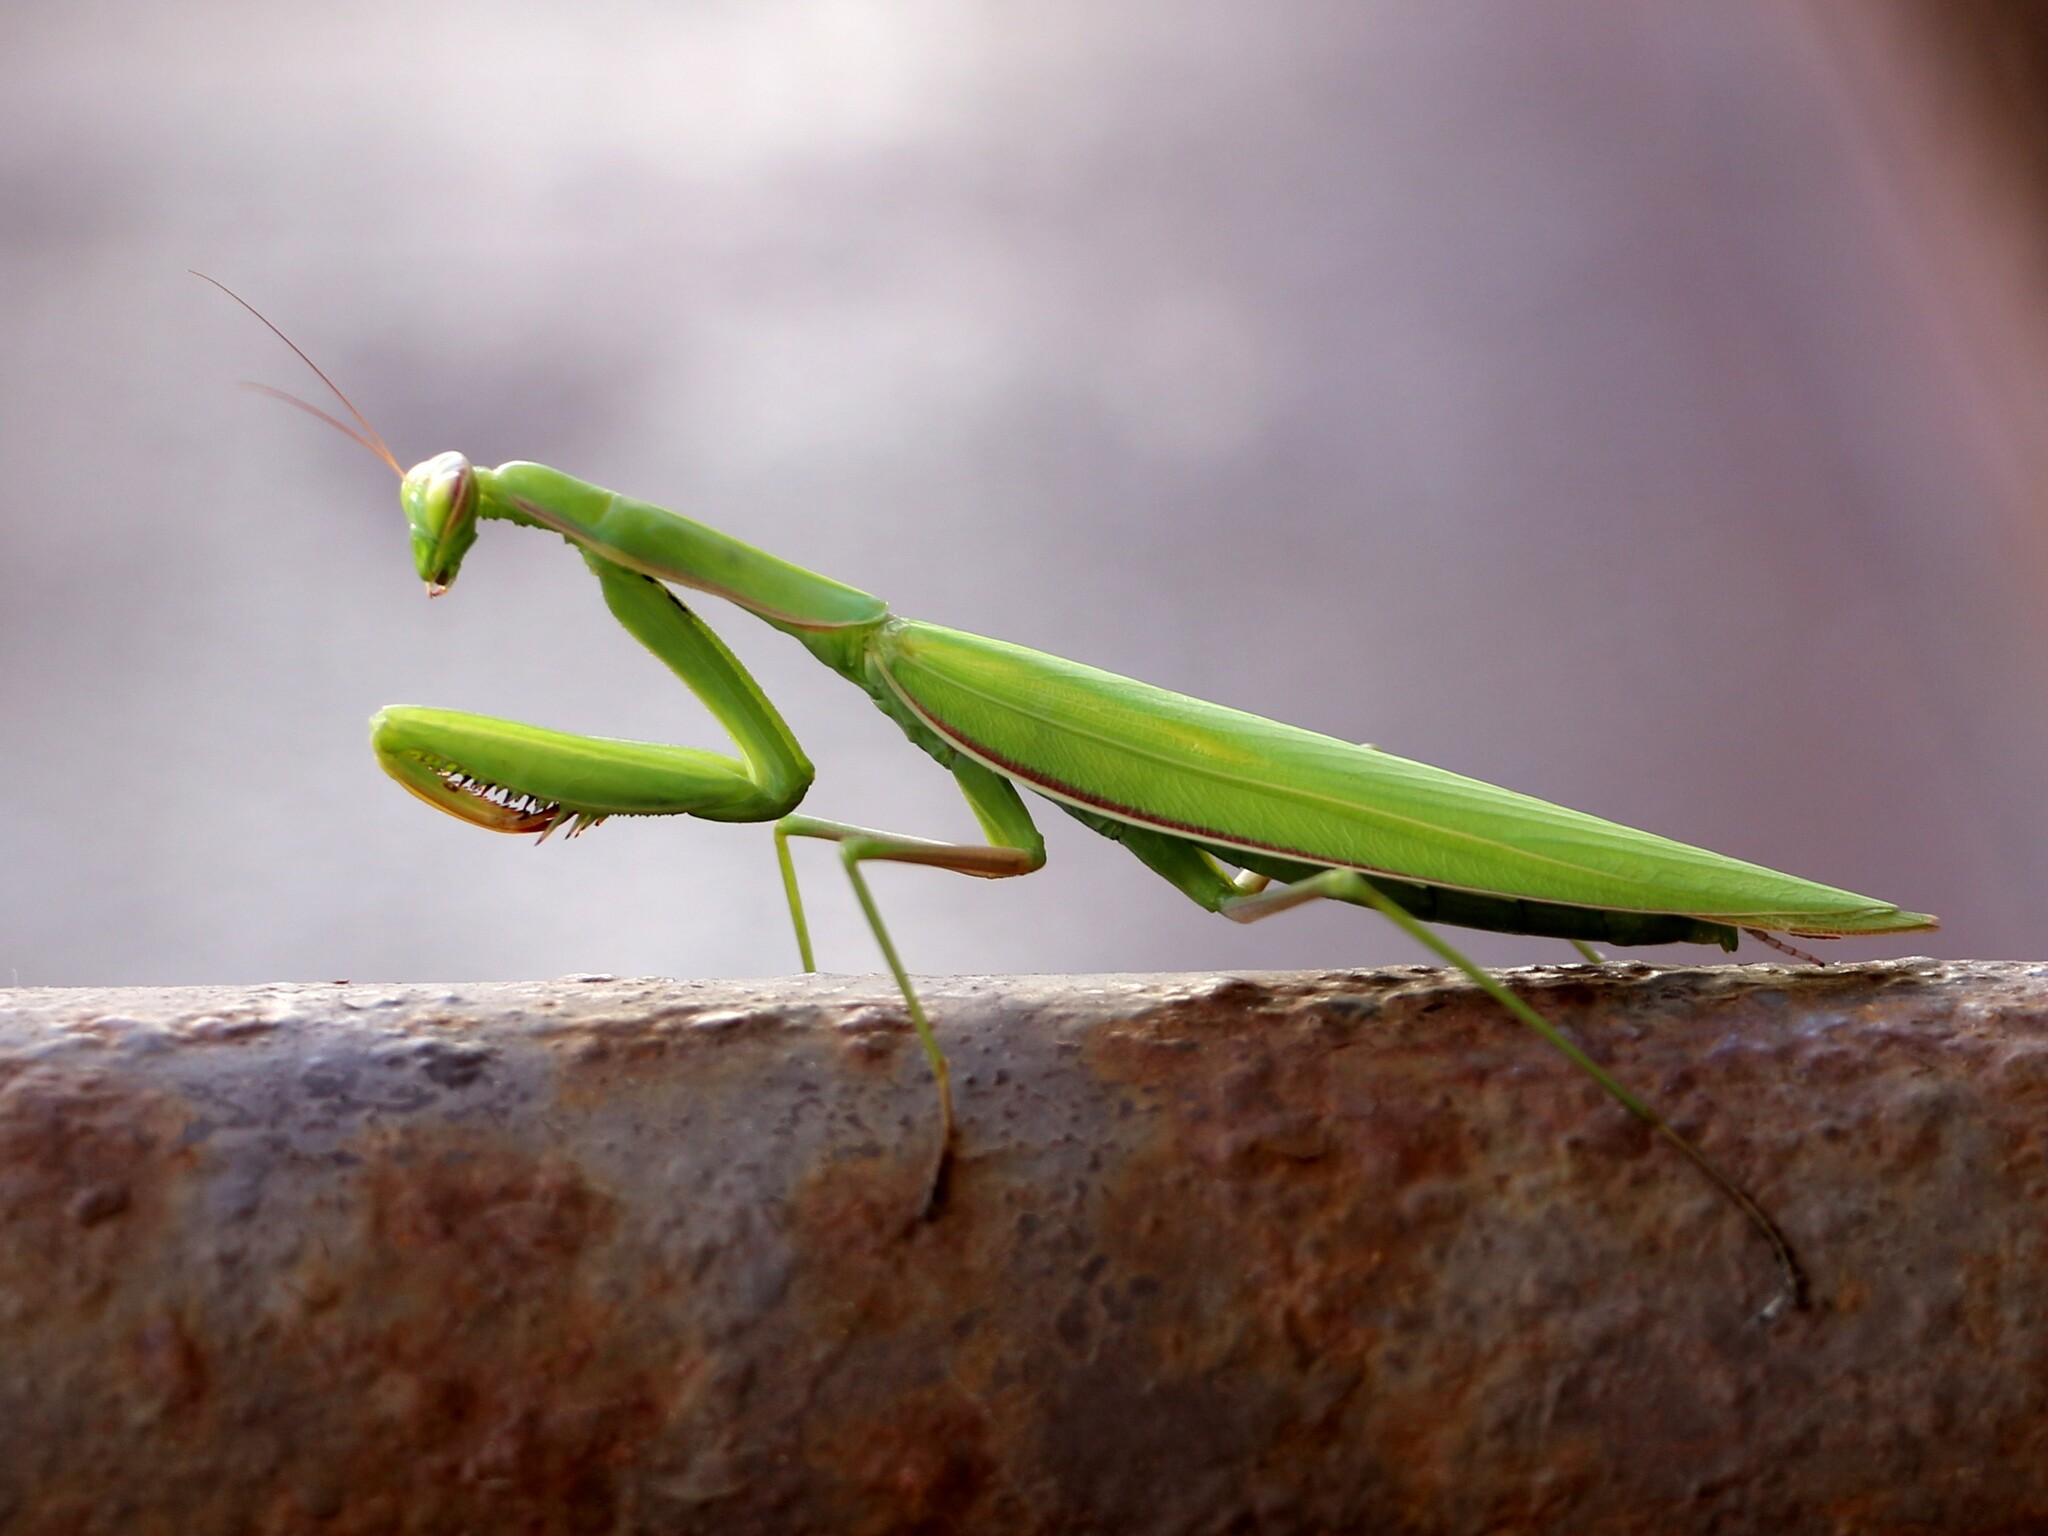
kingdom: Animalia
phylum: Arthropoda
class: Insecta
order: Mantodea
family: Mantidae
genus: Mantis
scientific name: Mantis religiosa
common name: Praying mantis
